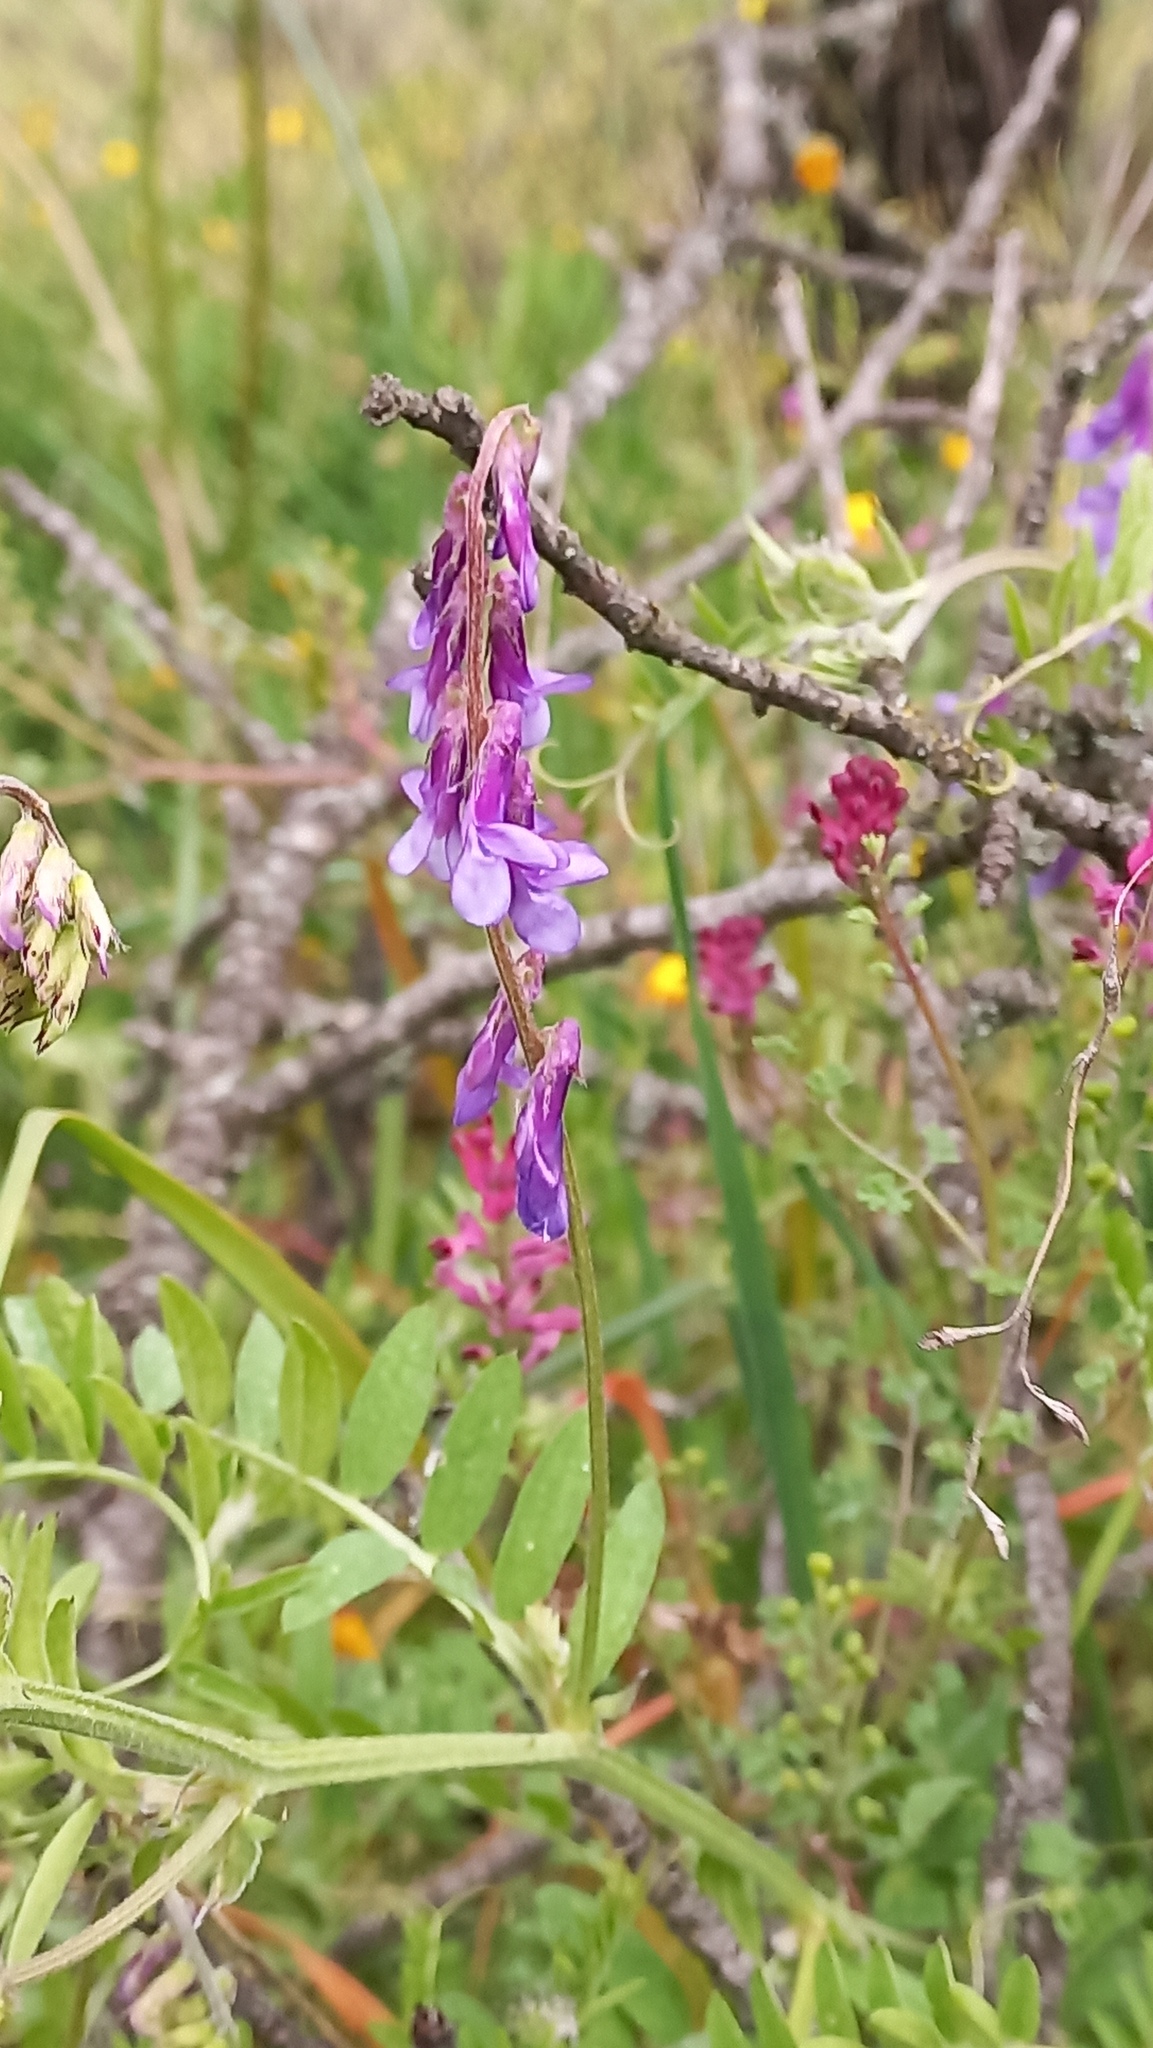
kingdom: Plantae
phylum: Tracheophyta
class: Magnoliopsida
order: Fabales
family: Fabaceae
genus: Vicia
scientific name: Vicia villosa
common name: Fodder vetch
